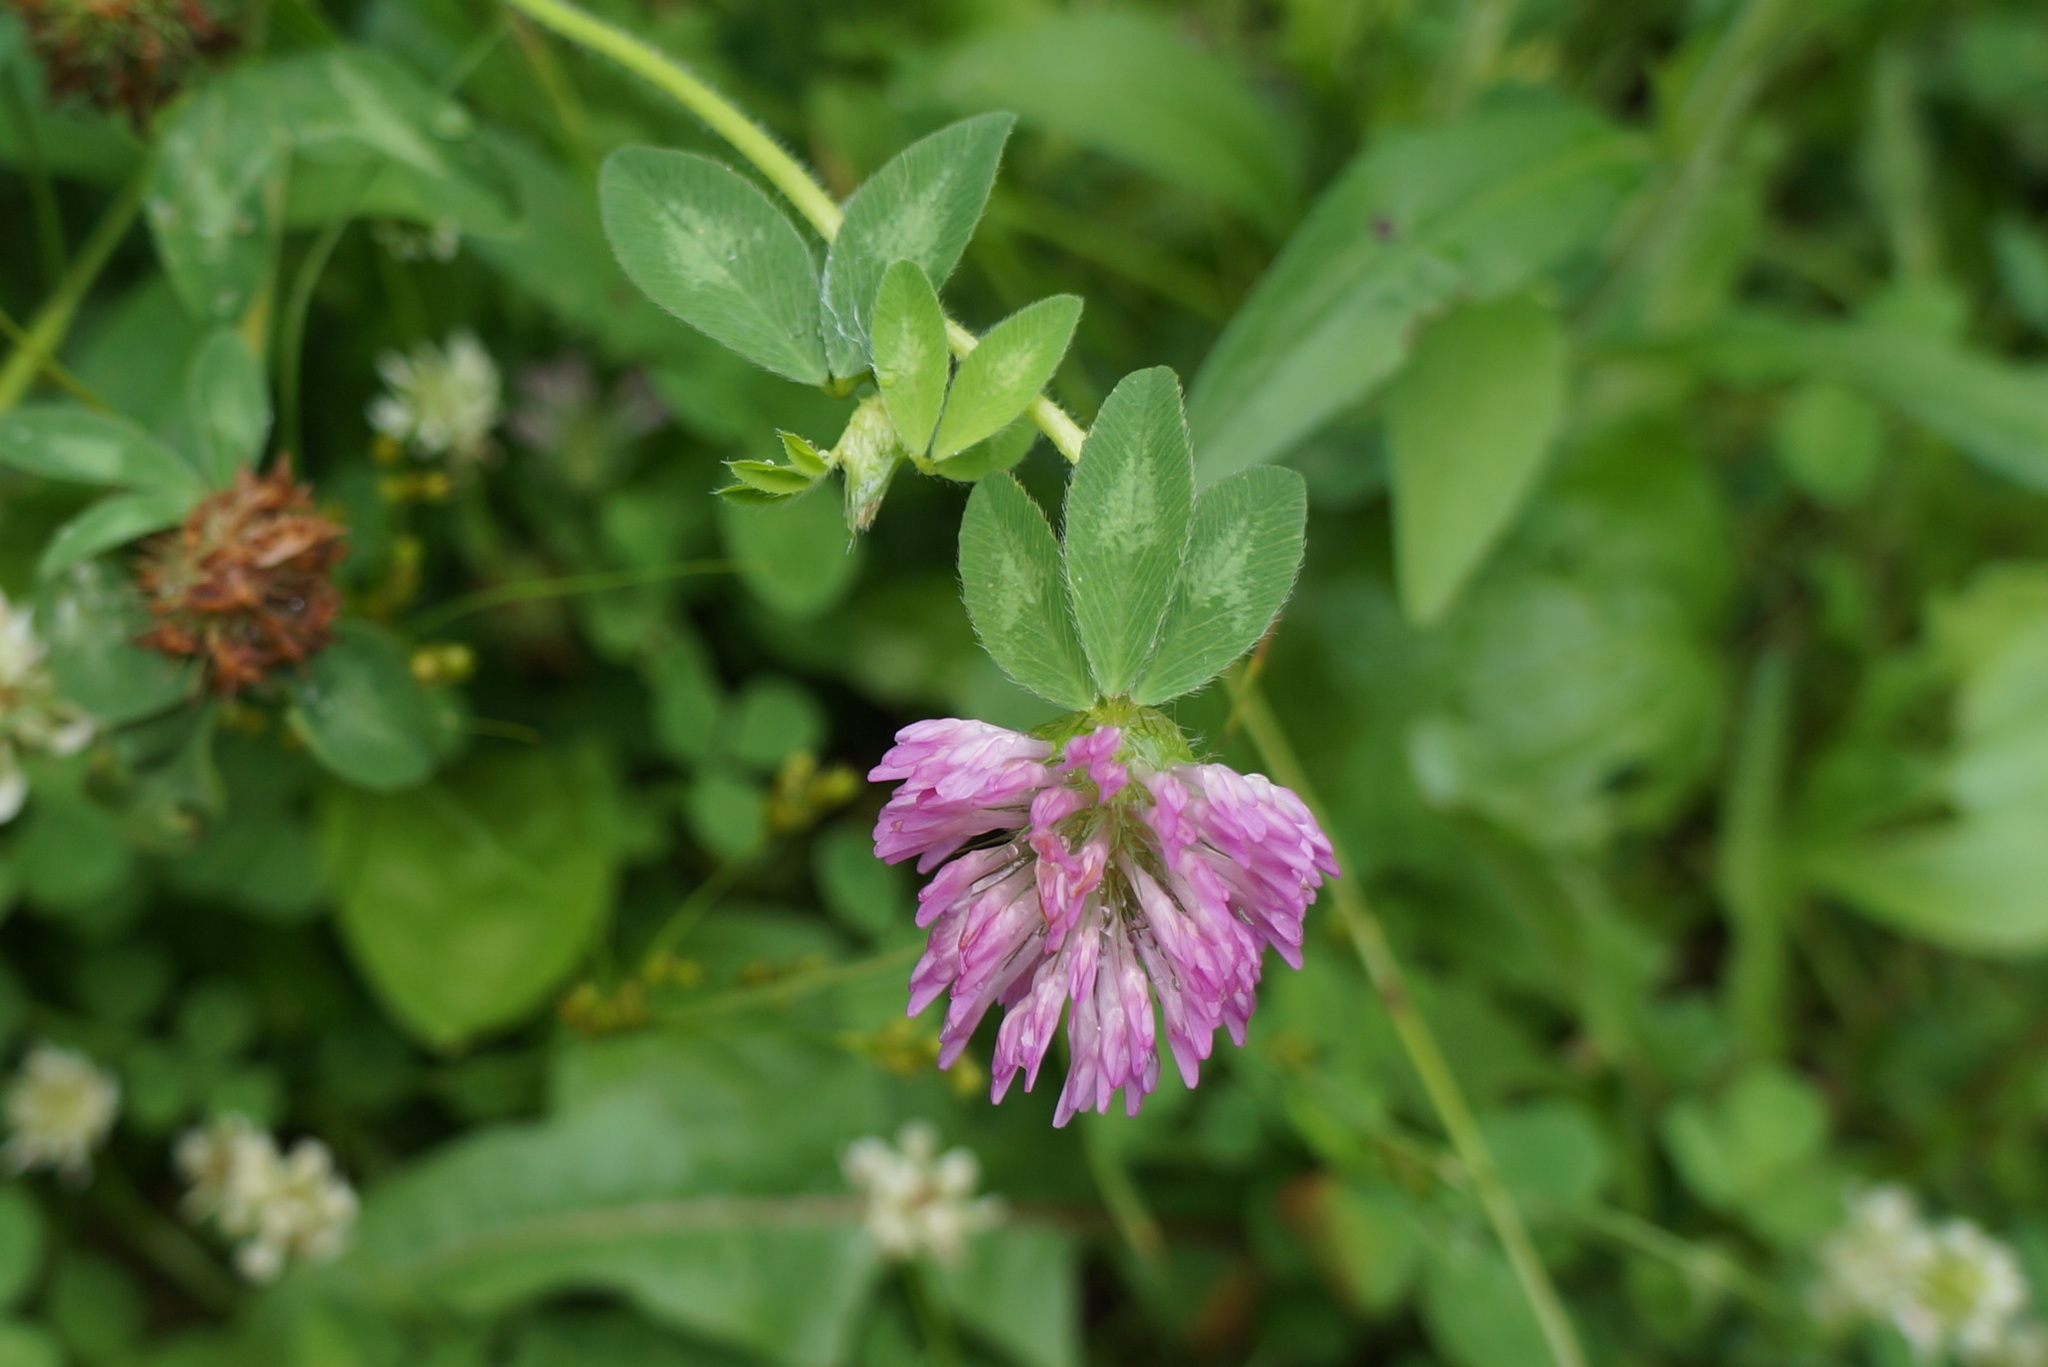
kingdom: Plantae
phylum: Tracheophyta
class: Magnoliopsida
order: Fabales
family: Fabaceae
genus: Trifolium
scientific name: Trifolium pratense
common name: Red clover
